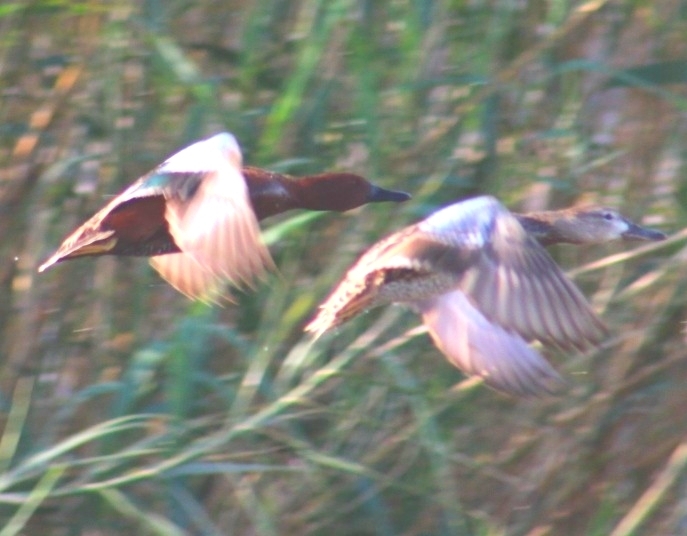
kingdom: Animalia
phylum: Chordata
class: Aves
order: Anseriformes
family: Anatidae
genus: Spatula
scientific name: Spatula cyanoptera
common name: Cinnamon teal
